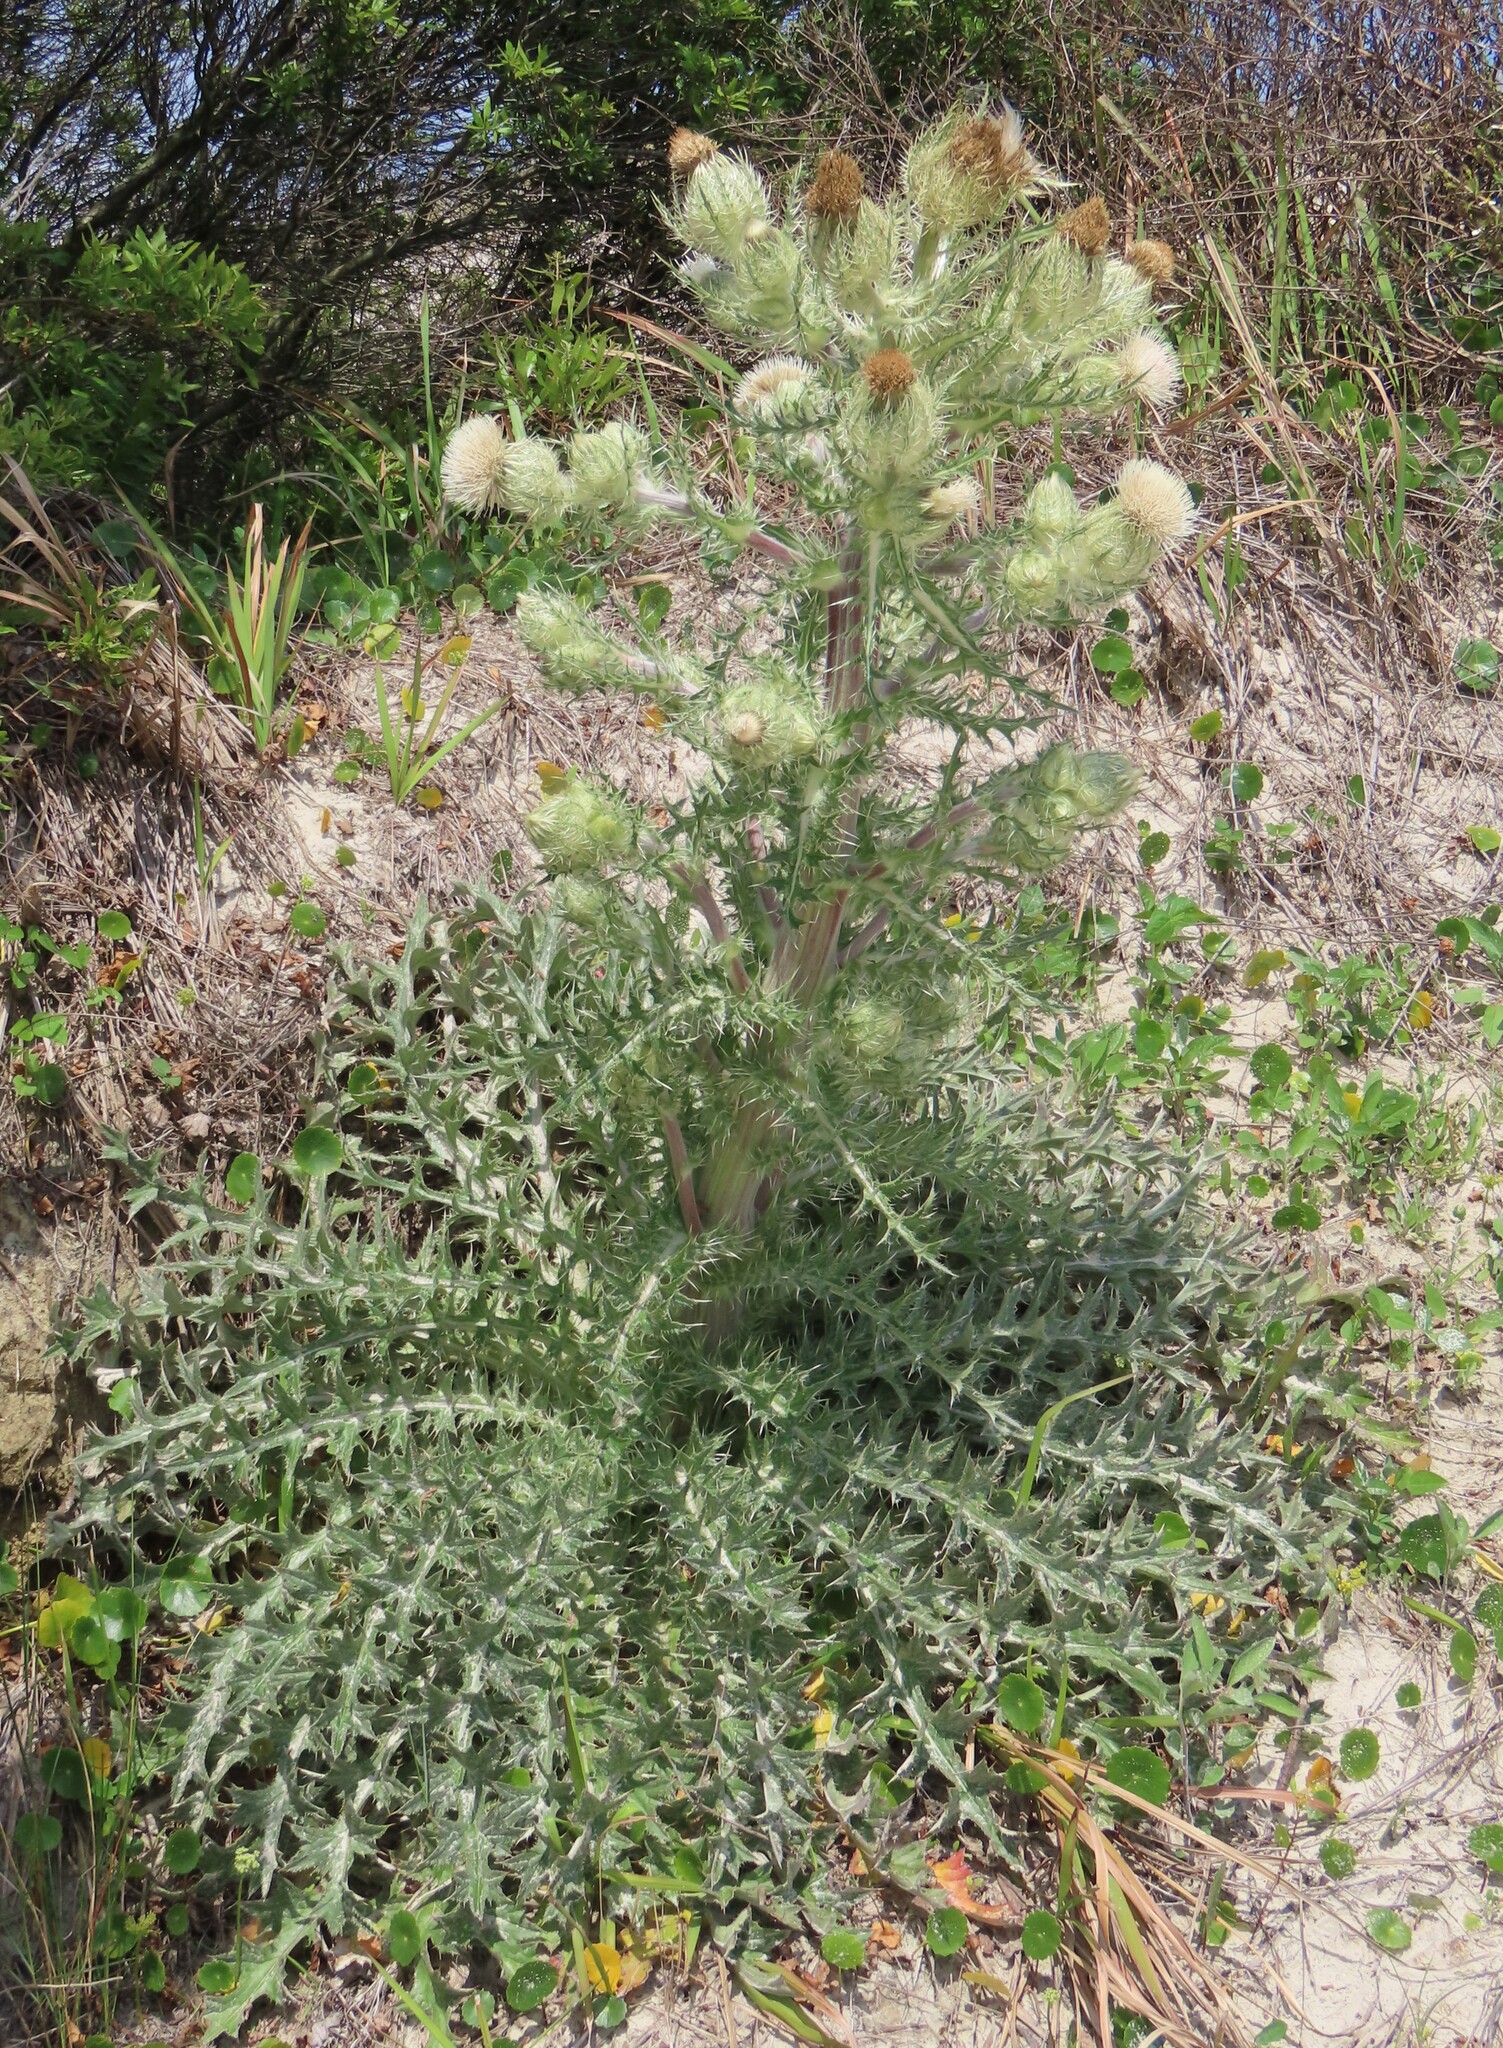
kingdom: Plantae
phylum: Tracheophyta
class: Magnoliopsida
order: Asterales
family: Asteraceae
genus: Cirsium
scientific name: Cirsium horridulum
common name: Bristly thistle
